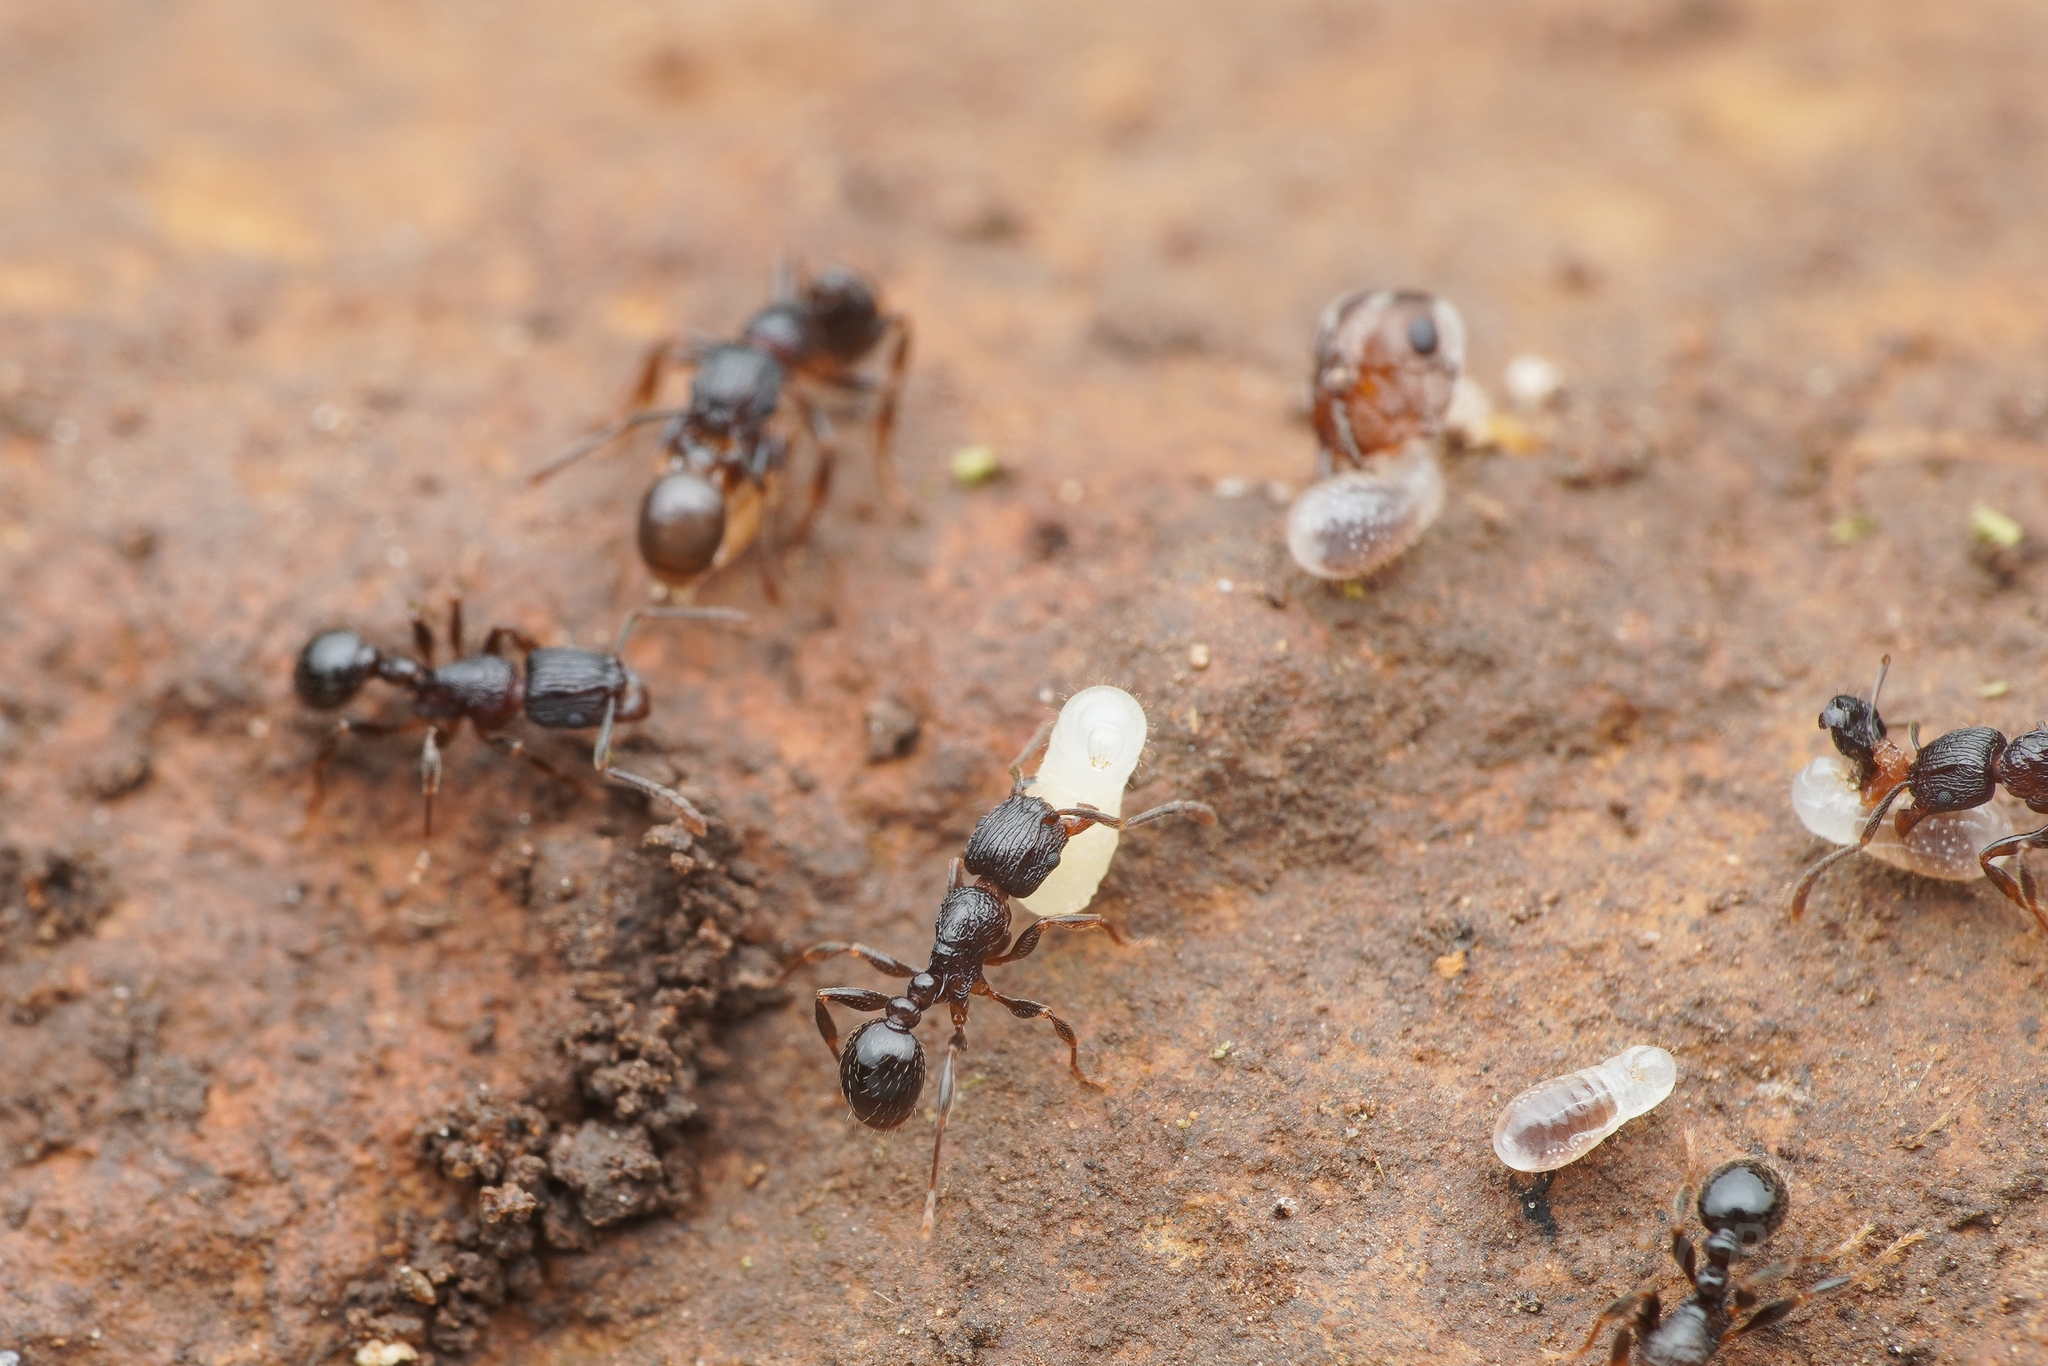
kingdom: Animalia
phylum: Arthropoda
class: Insecta
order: Hymenoptera
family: Formicidae
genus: Tetramorium
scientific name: Tetramorium grassii
